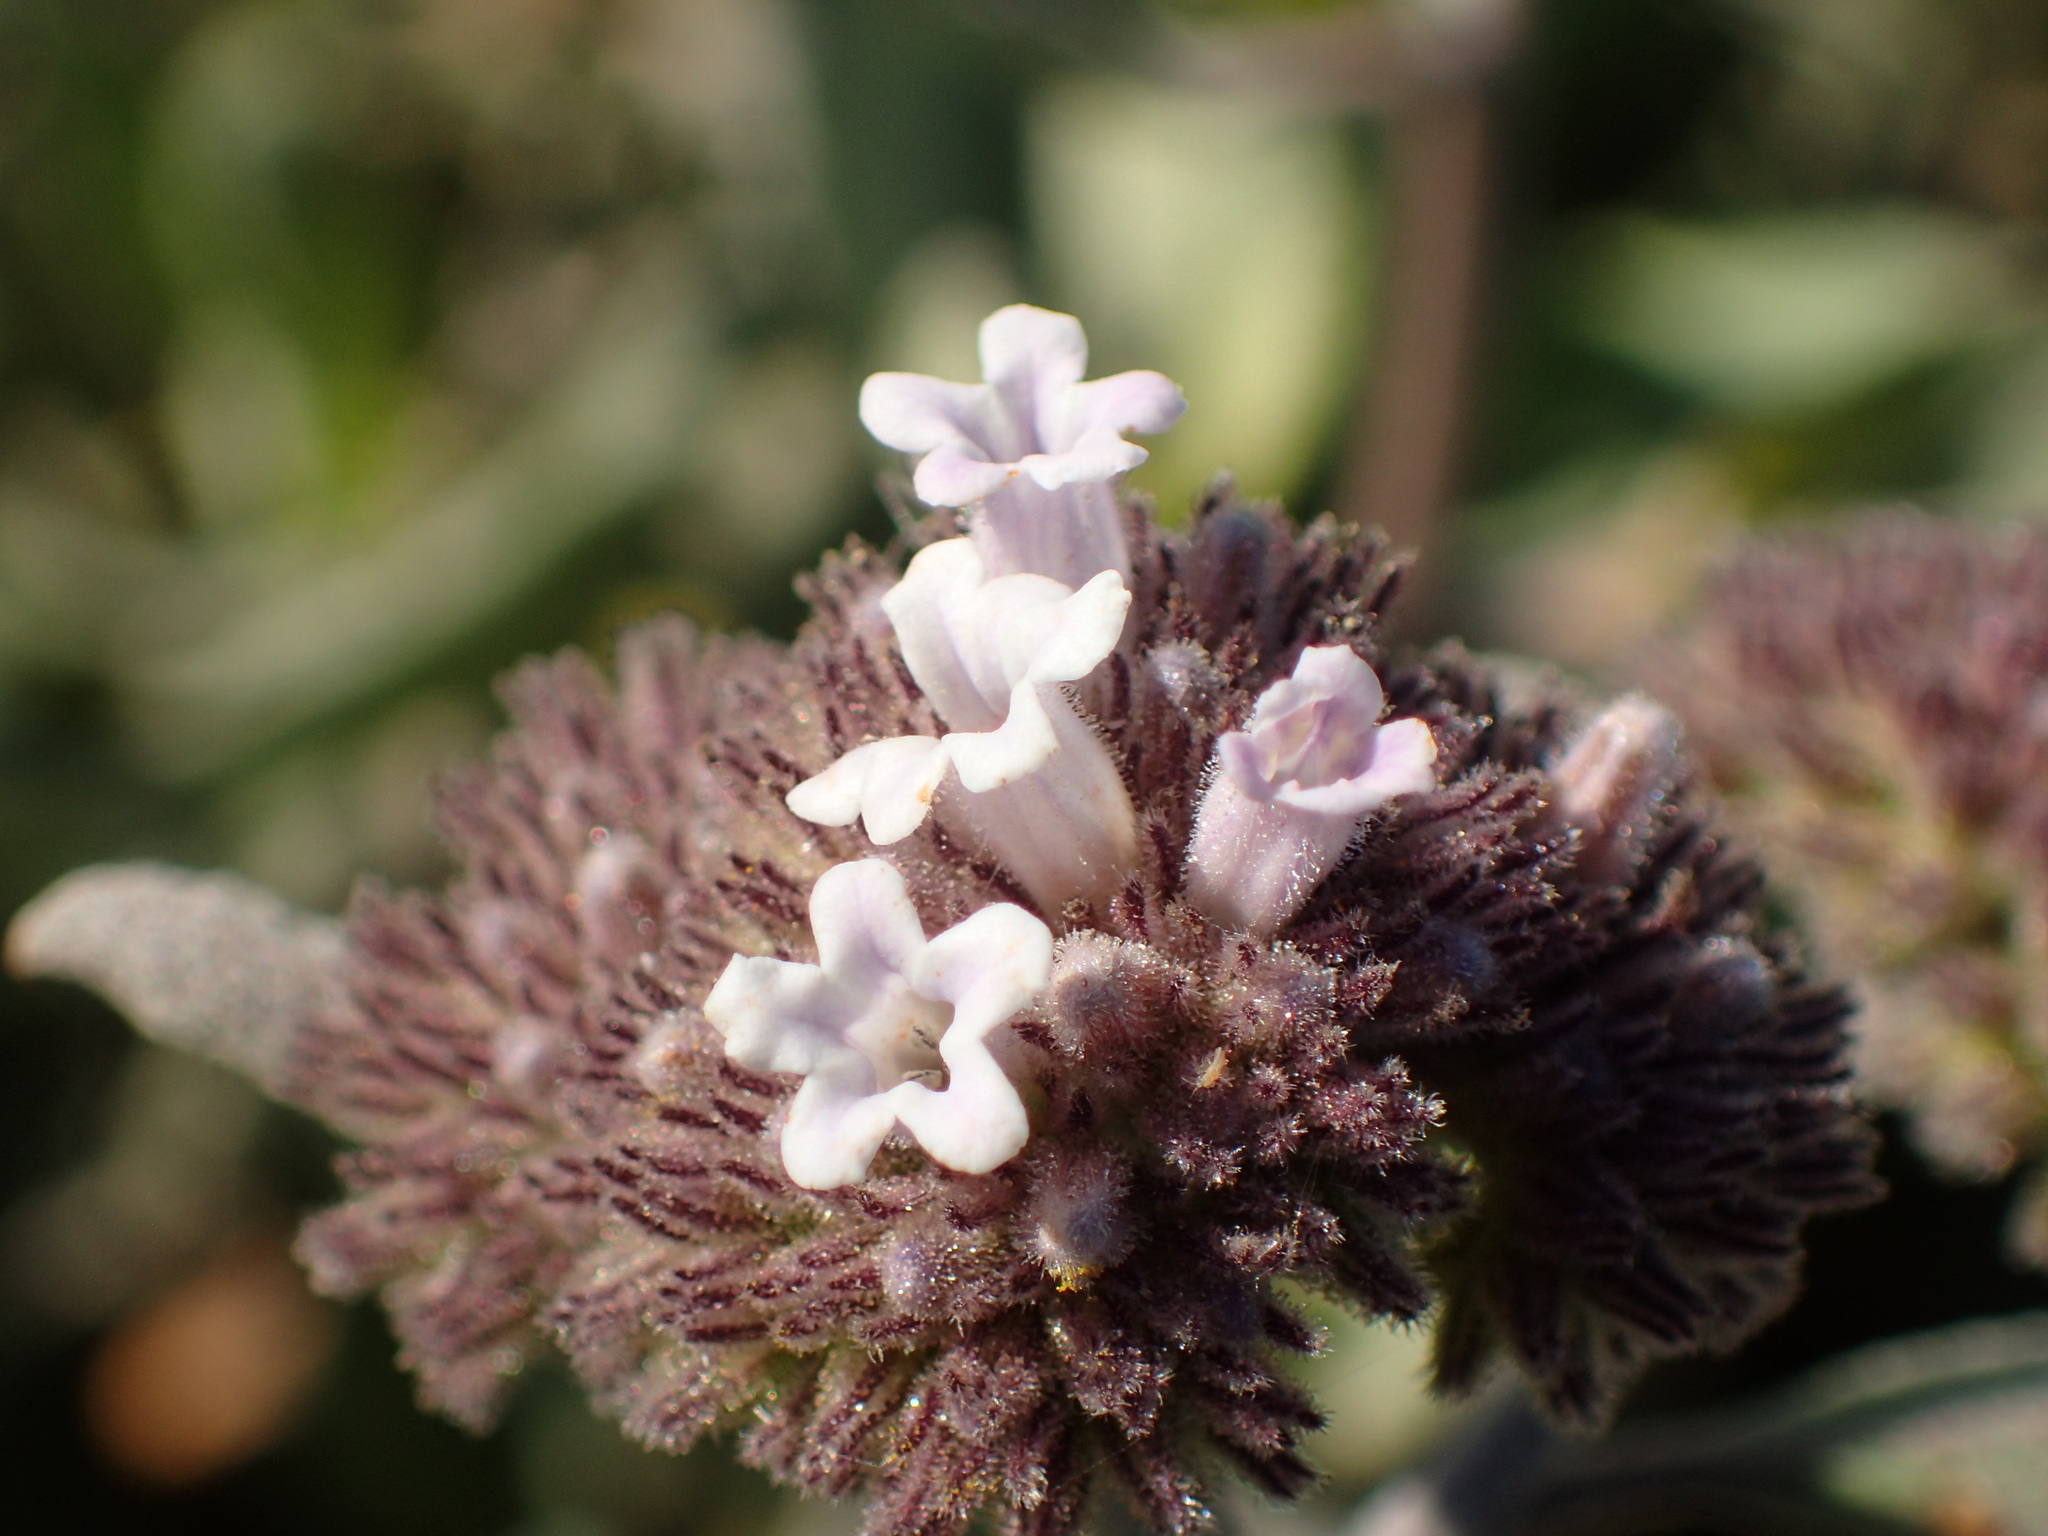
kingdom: Plantae
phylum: Tracheophyta
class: Magnoliopsida
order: Boraginales
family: Namaceae
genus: Eriodictyon
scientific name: Eriodictyon traskiae
